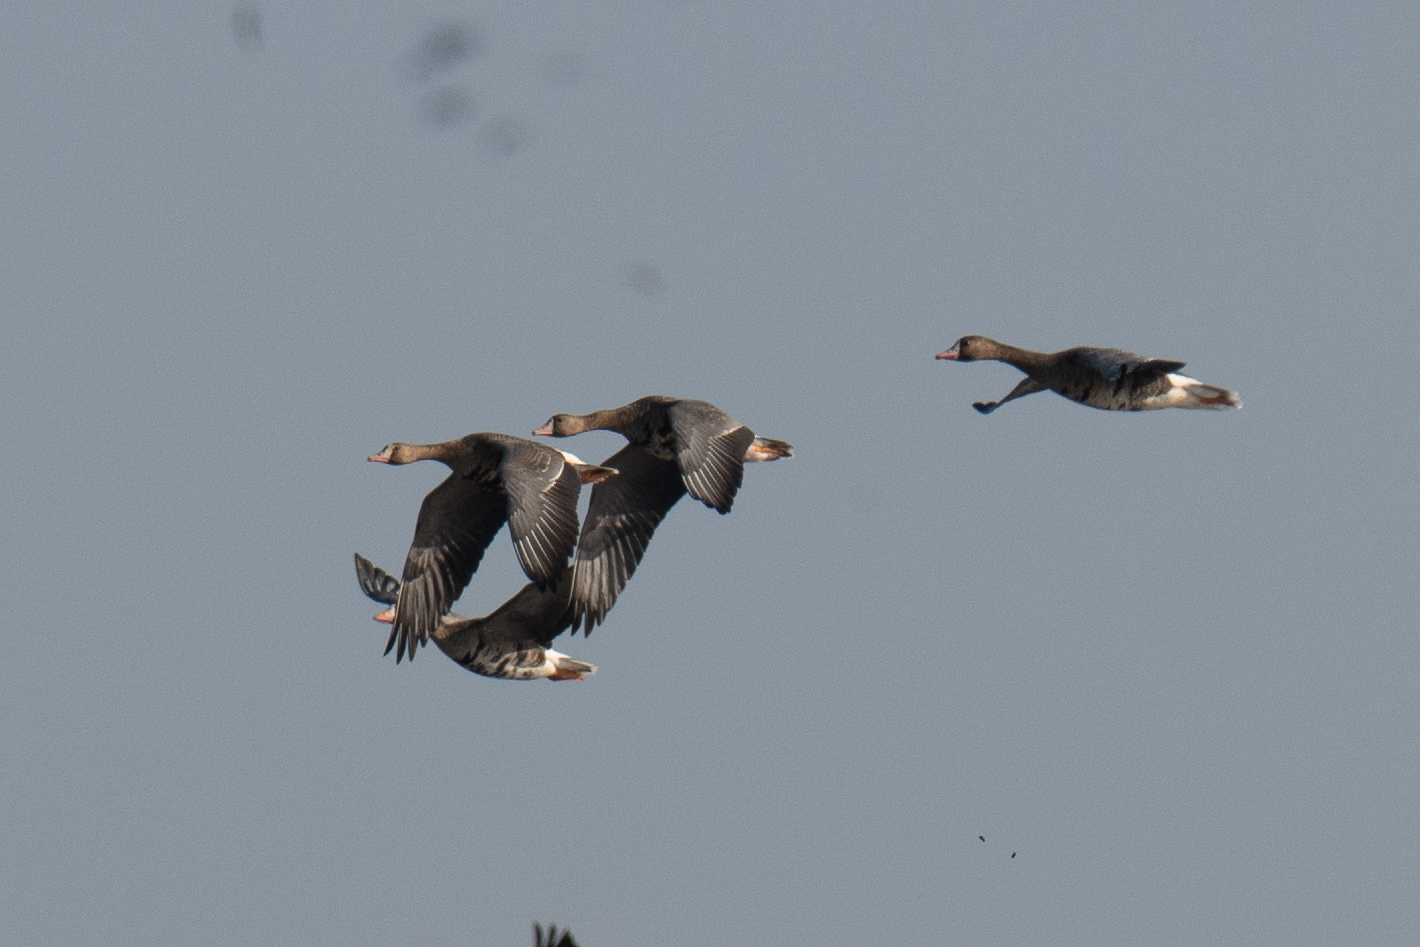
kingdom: Animalia
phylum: Chordata
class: Aves
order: Anseriformes
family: Anatidae
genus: Anser
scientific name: Anser albifrons
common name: Greater white-fronted goose
